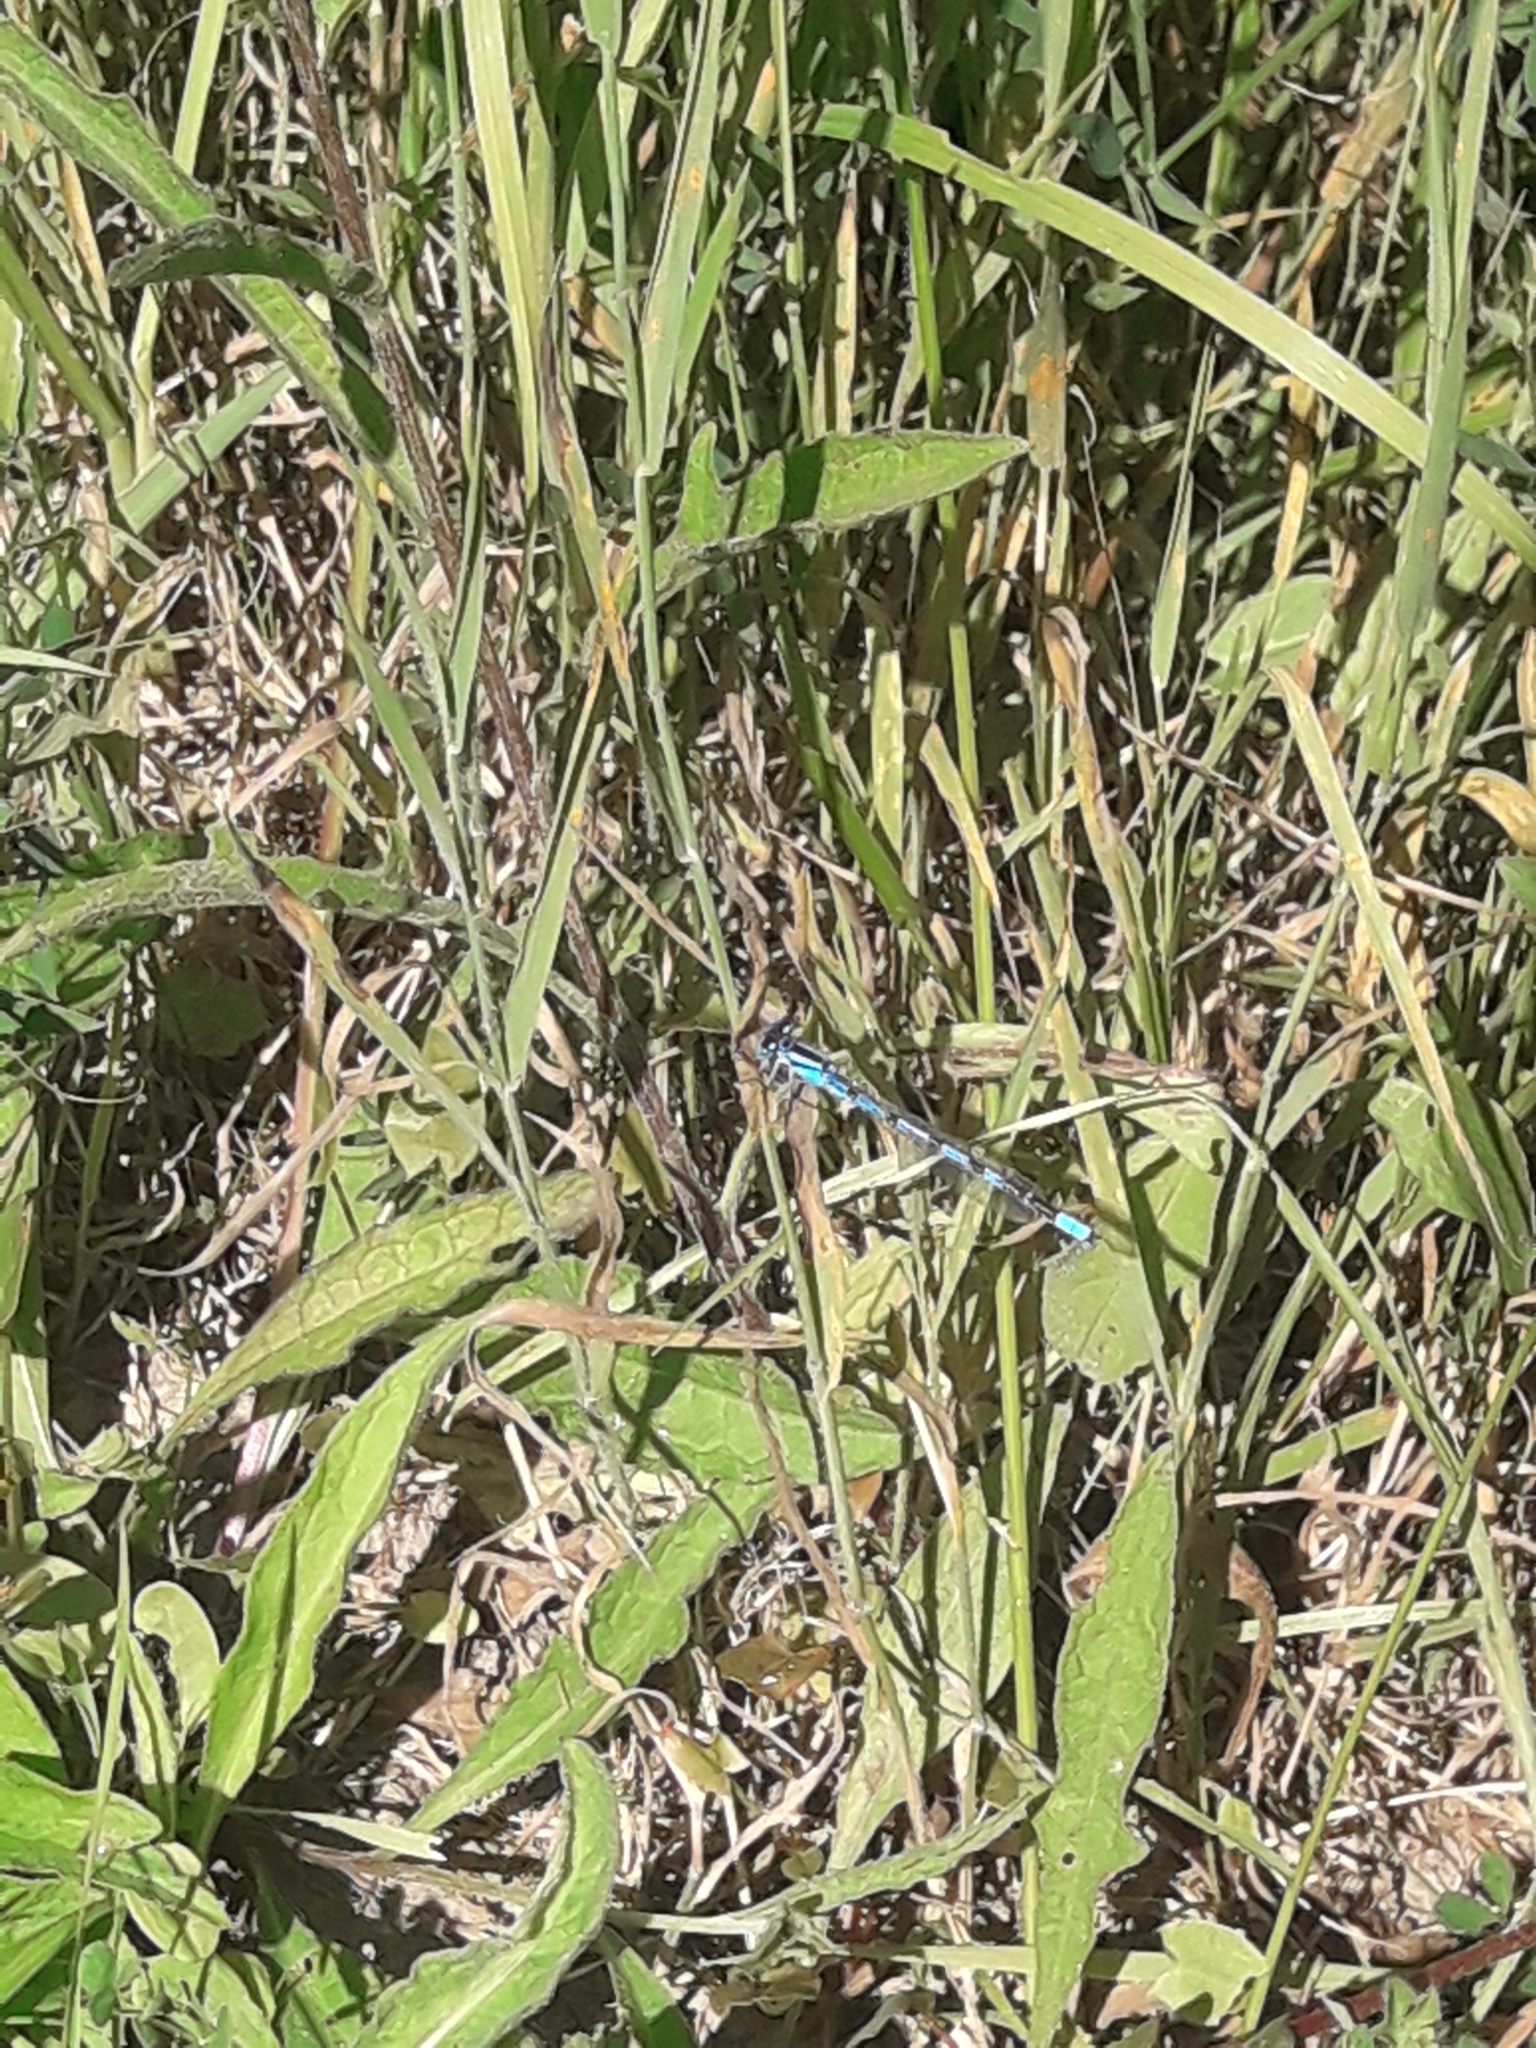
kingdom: Animalia
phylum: Arthropoda
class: Insecta
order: Odonata
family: Coenagrionidae
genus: Enallagma
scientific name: Enallagma cyathigerum
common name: Common blue damselfly
